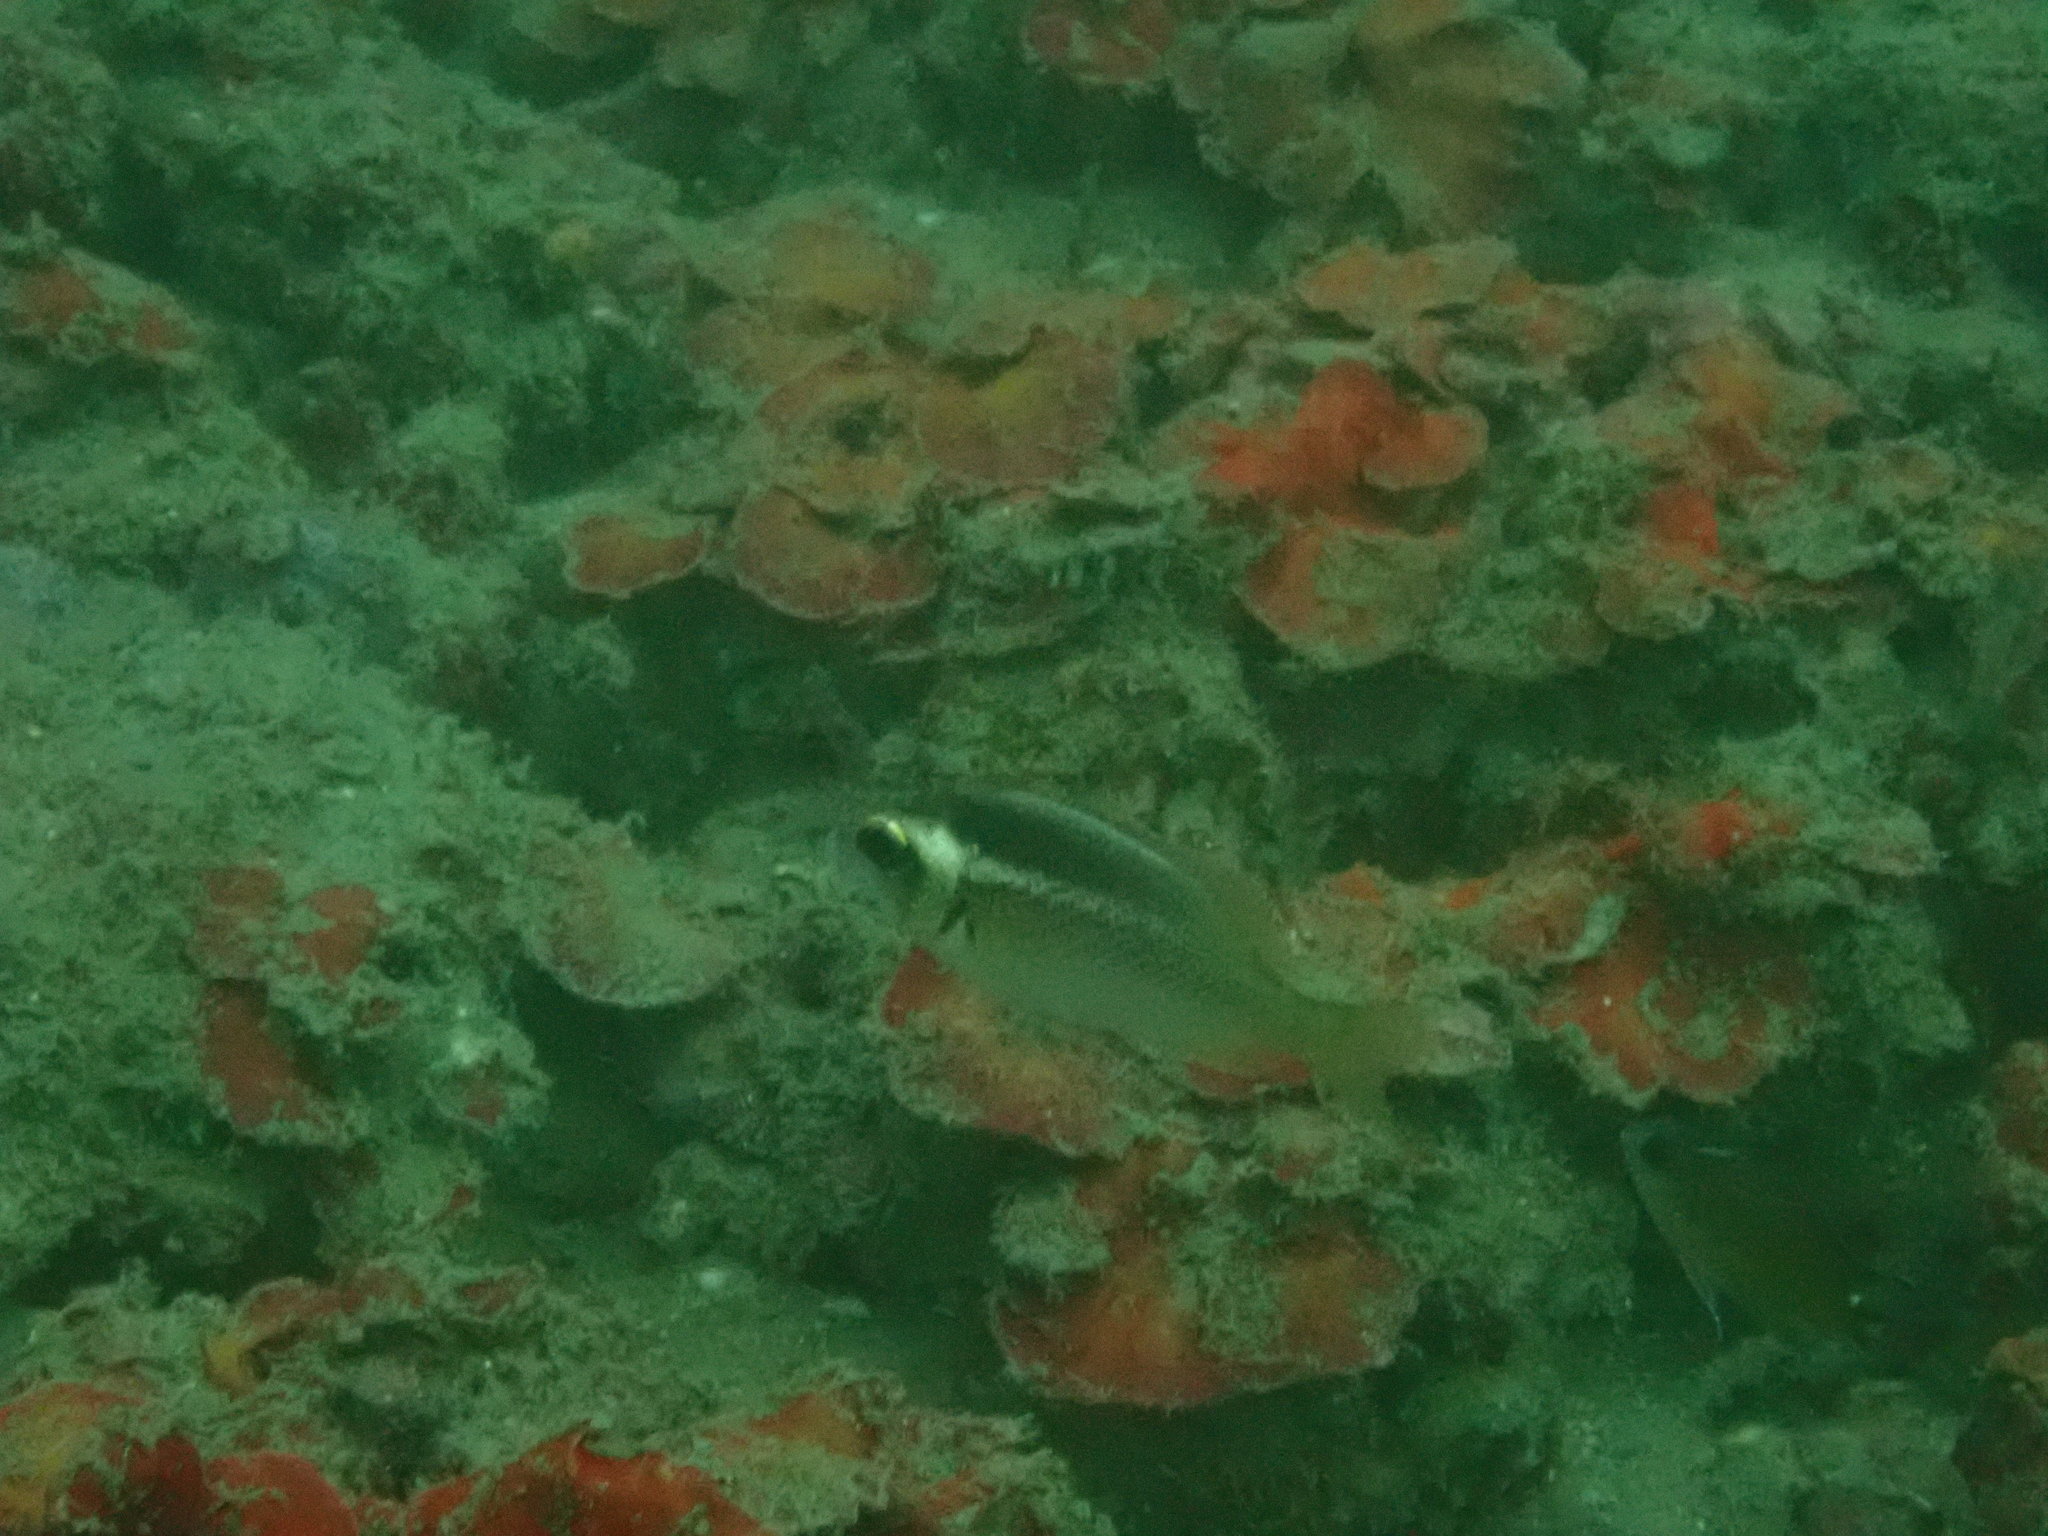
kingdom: Animalia
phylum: Chordata
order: Perciformes
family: Nemipteridae
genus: Scolopsis
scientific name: Scolopsis vosmeri
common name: Whitecheek monocle bream
